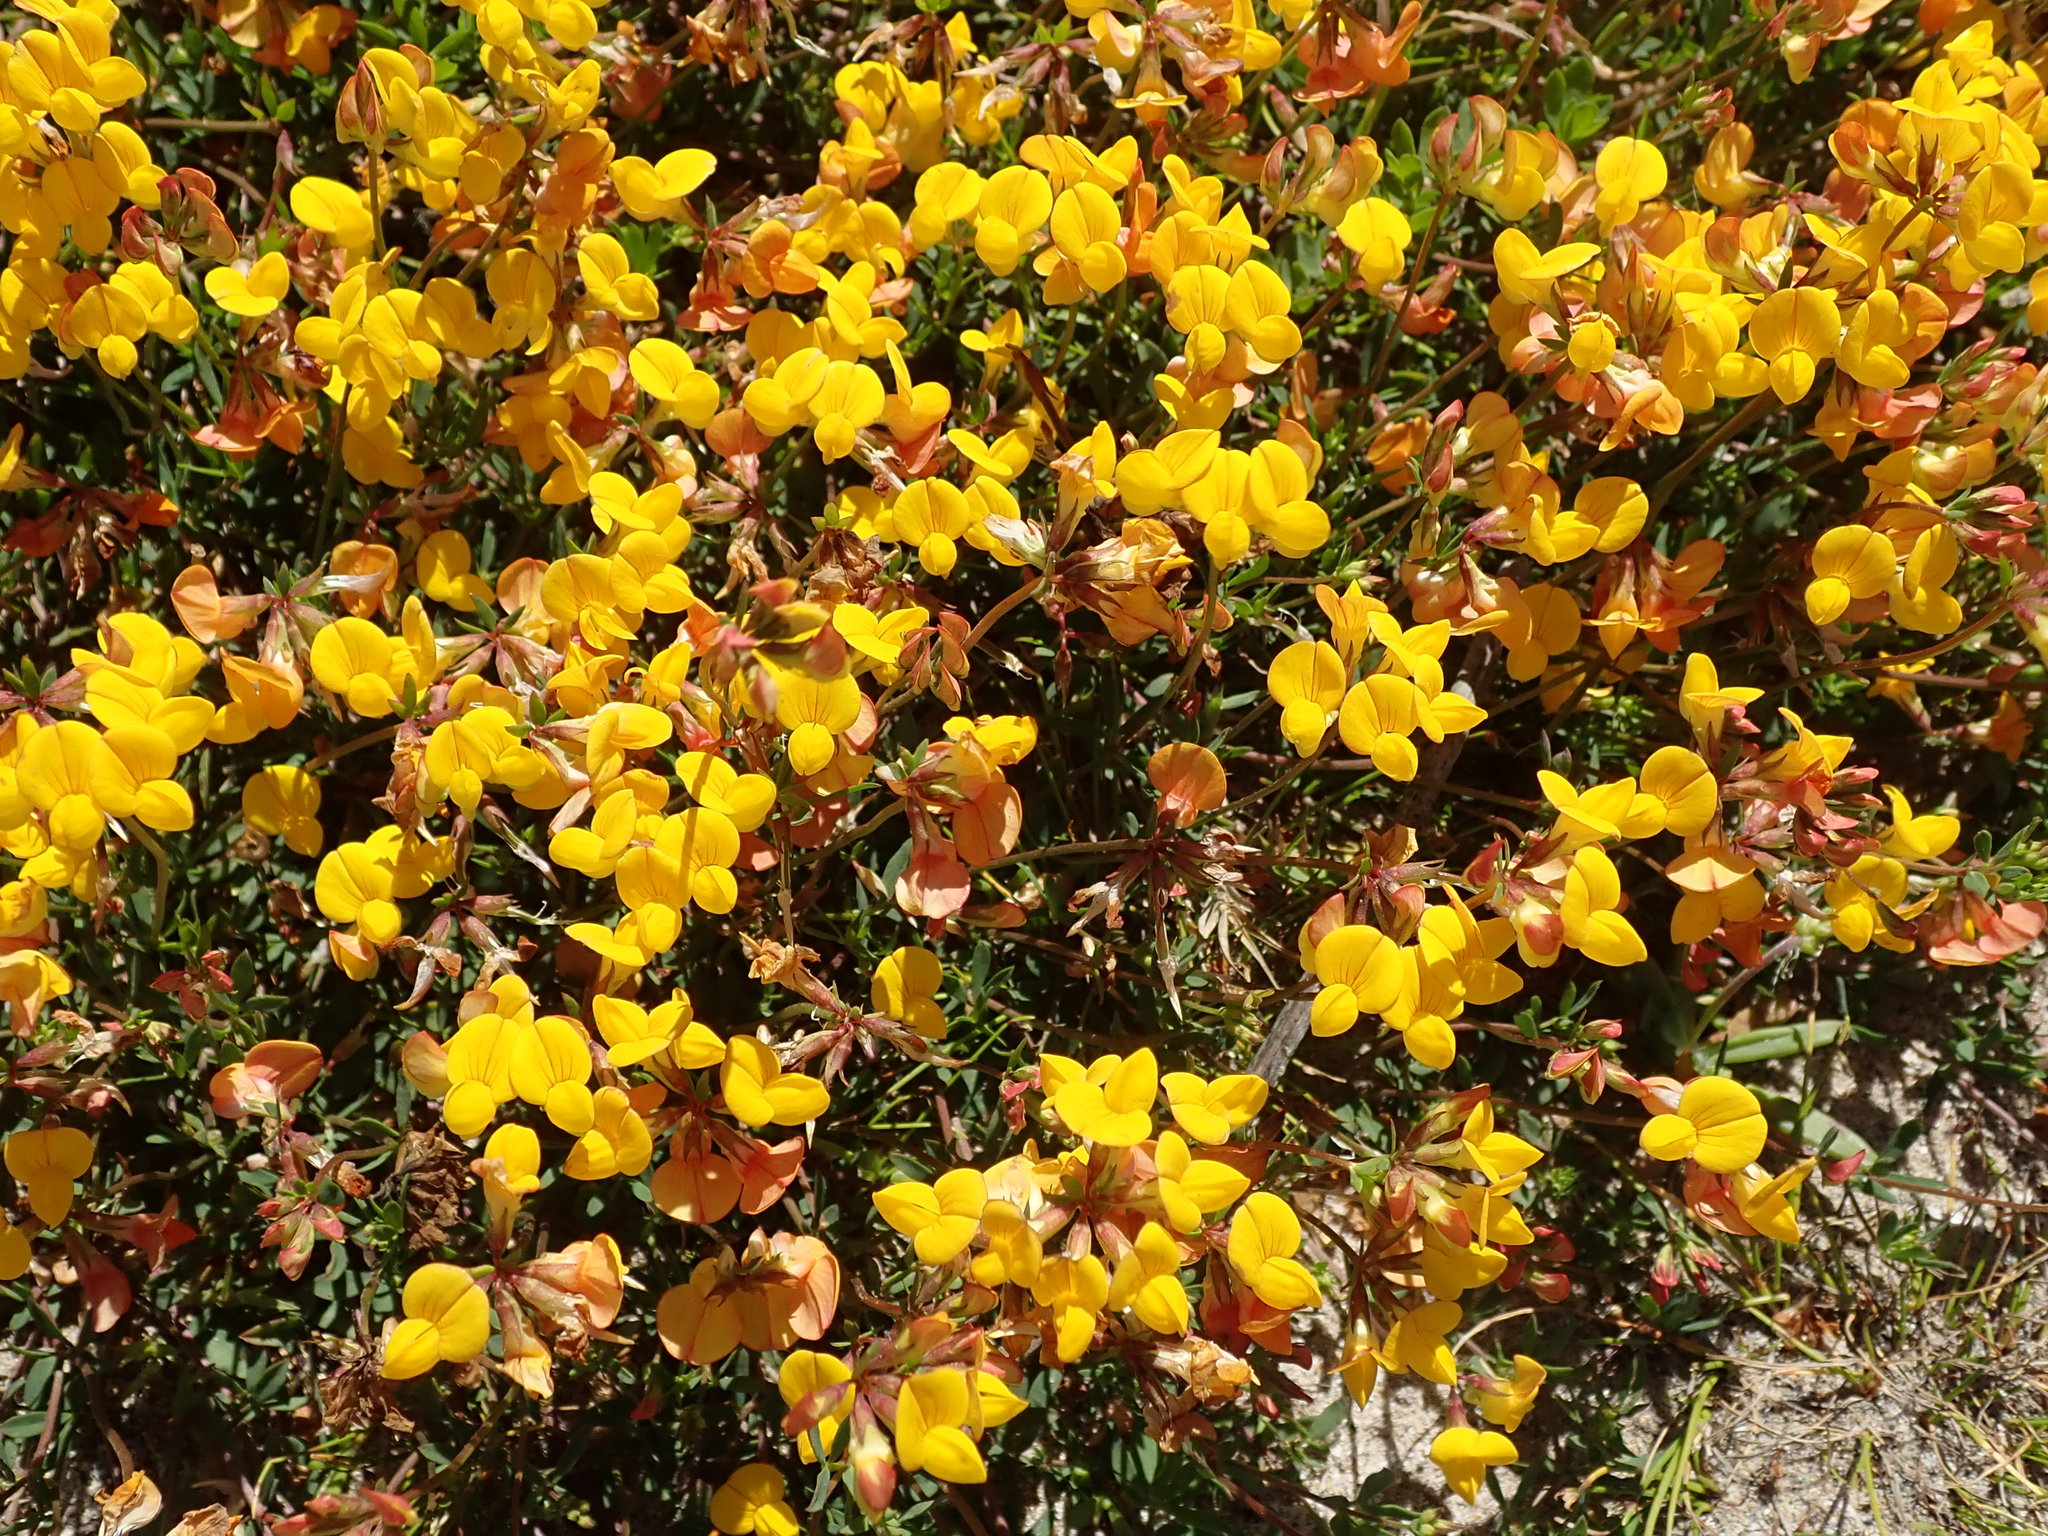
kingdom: Plantae
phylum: Tracheophyta
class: Magnoliopsida
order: Fabales
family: Fabaceae
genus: Lotus
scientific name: Lotus corniculatus
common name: Common bird's-foot-trefoil
